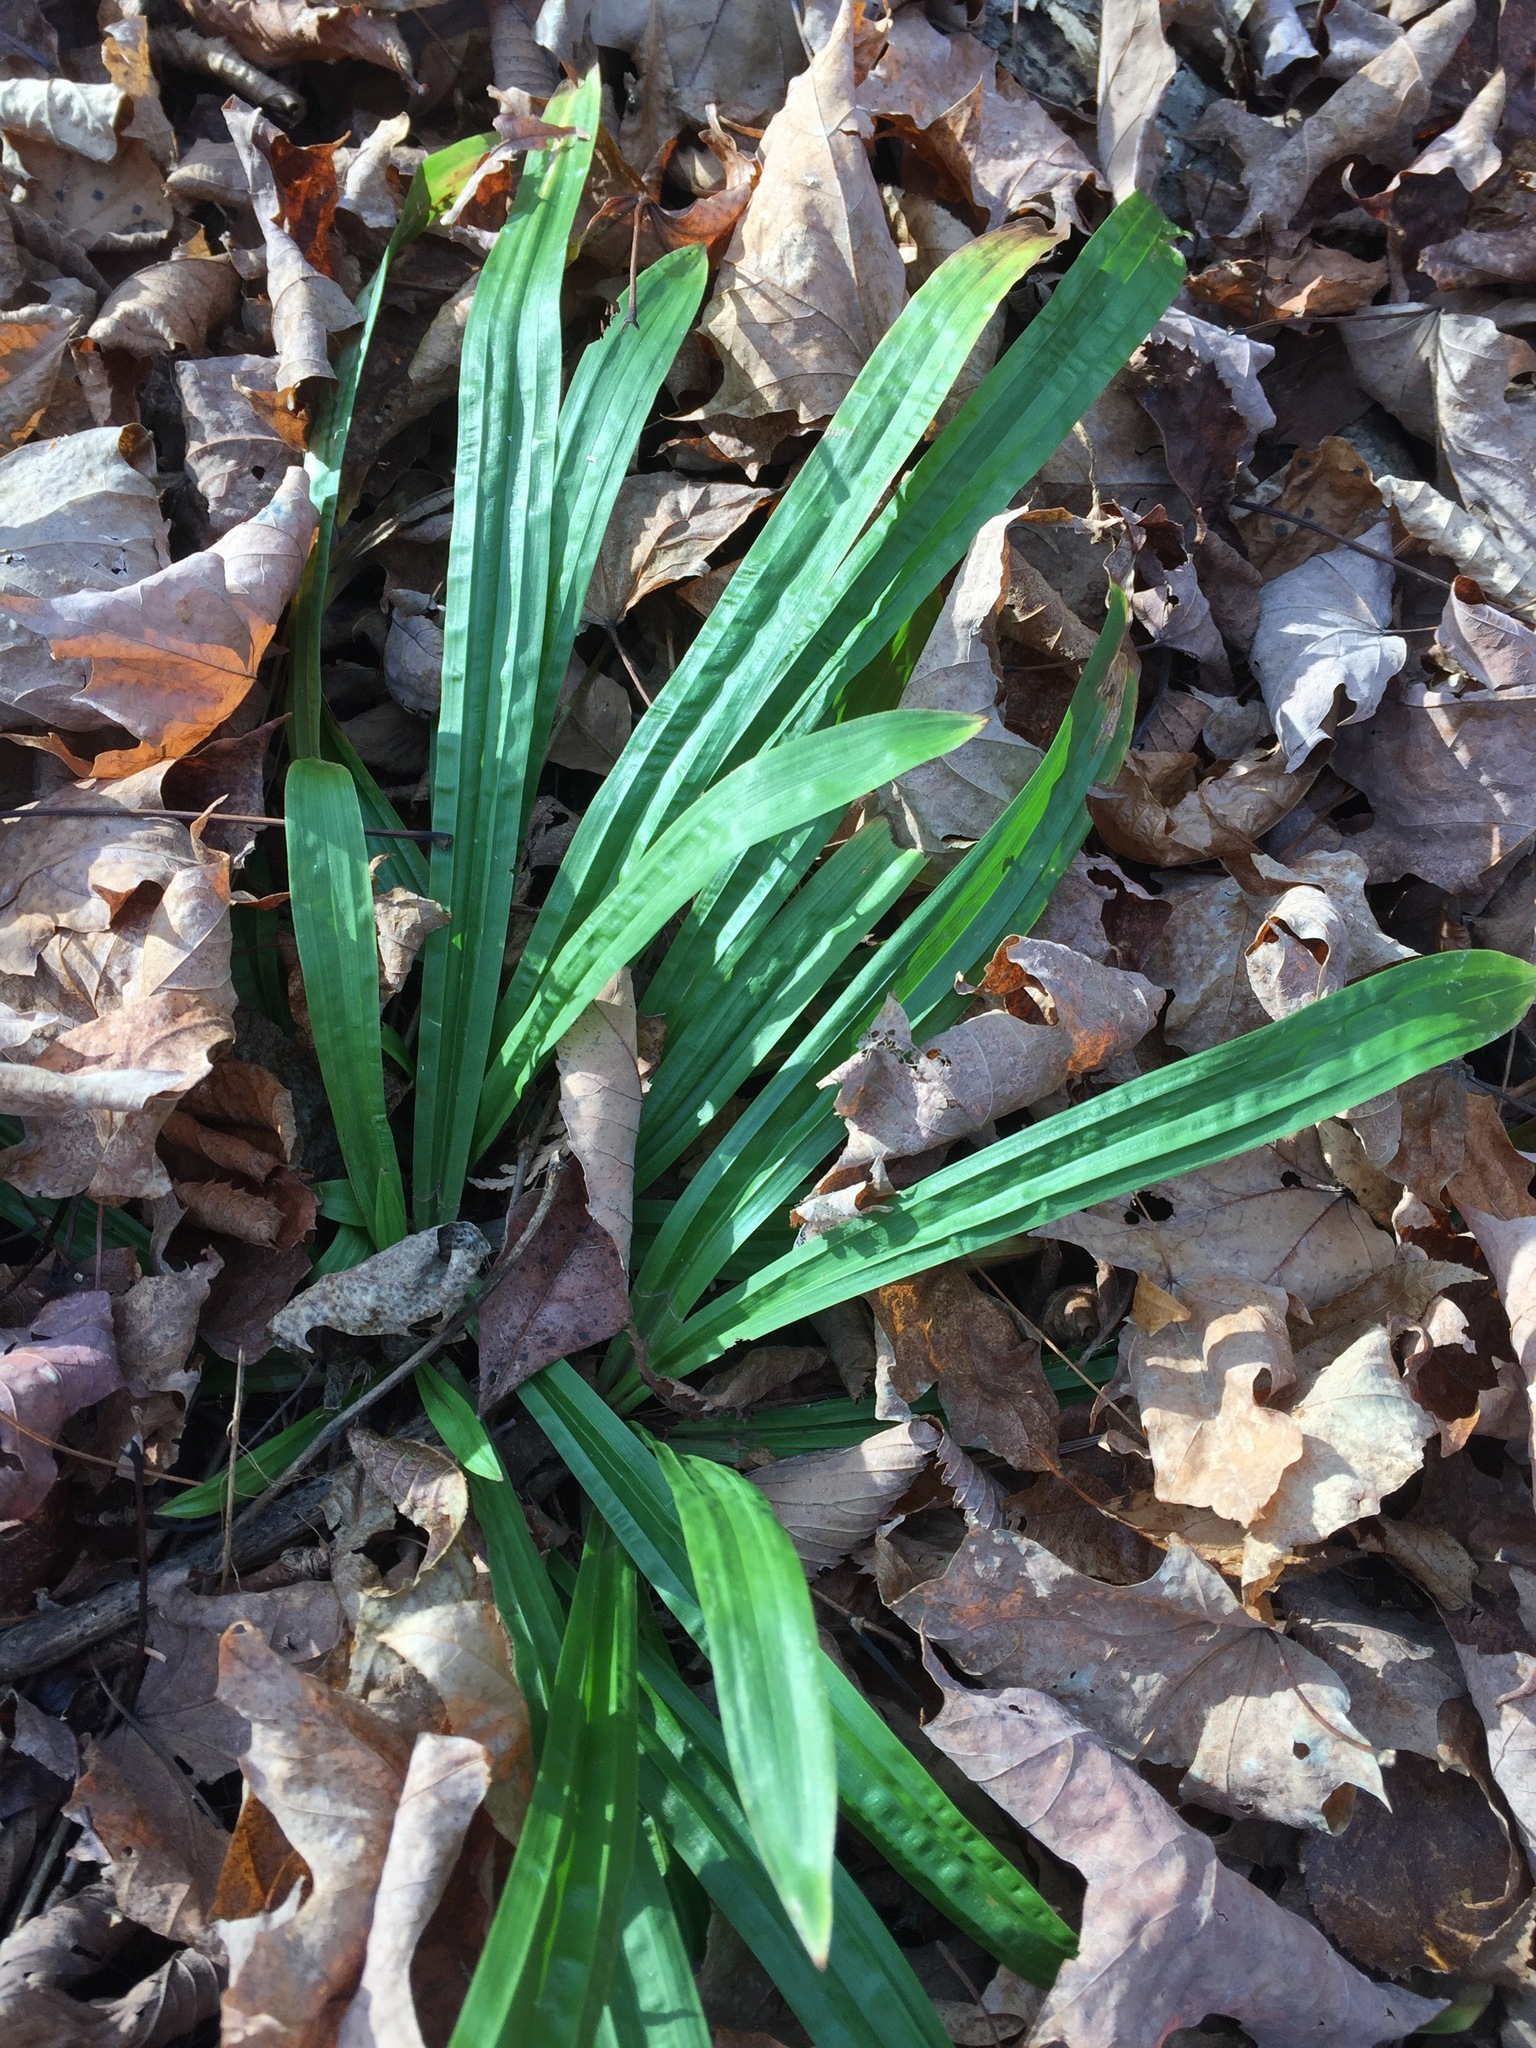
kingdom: Plantae
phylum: Tracheophyta
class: Liliopsida
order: Poales
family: Cyperaceae
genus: Carex
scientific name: Carex plantaginea
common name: Plantain-leaved sedge
